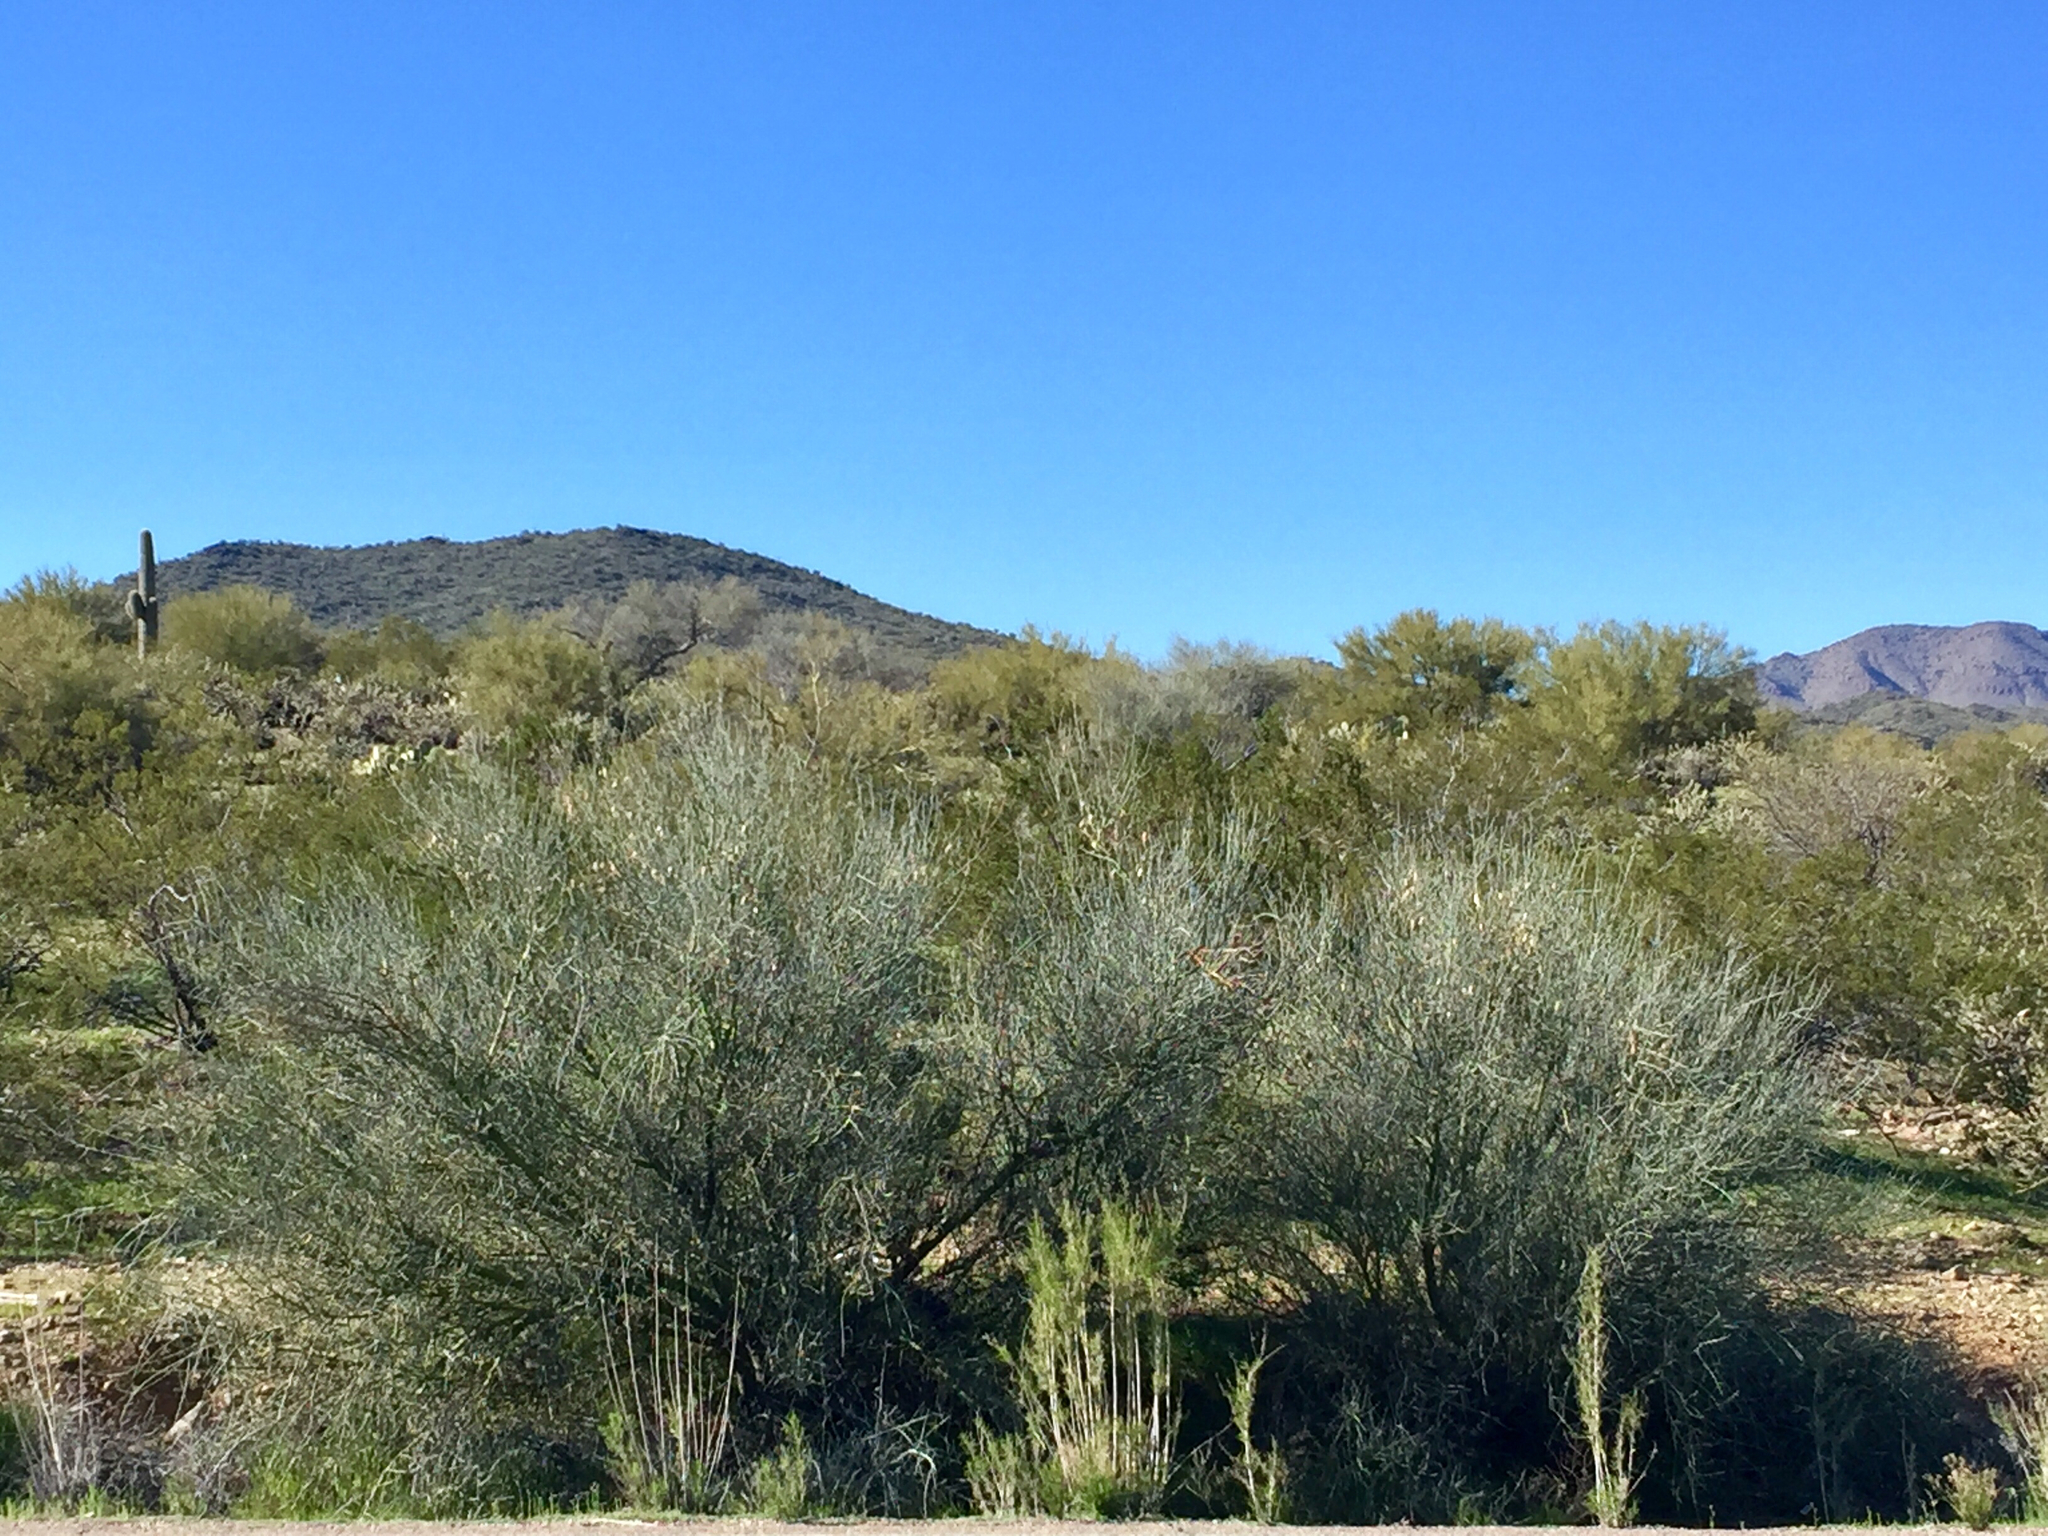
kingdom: Plantae
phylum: Tracheophyta
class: Magnoliopsida
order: Fabales
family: Fabaceae
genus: Parkinsonia
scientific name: Parkinsonia florida
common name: Blue paloverde
